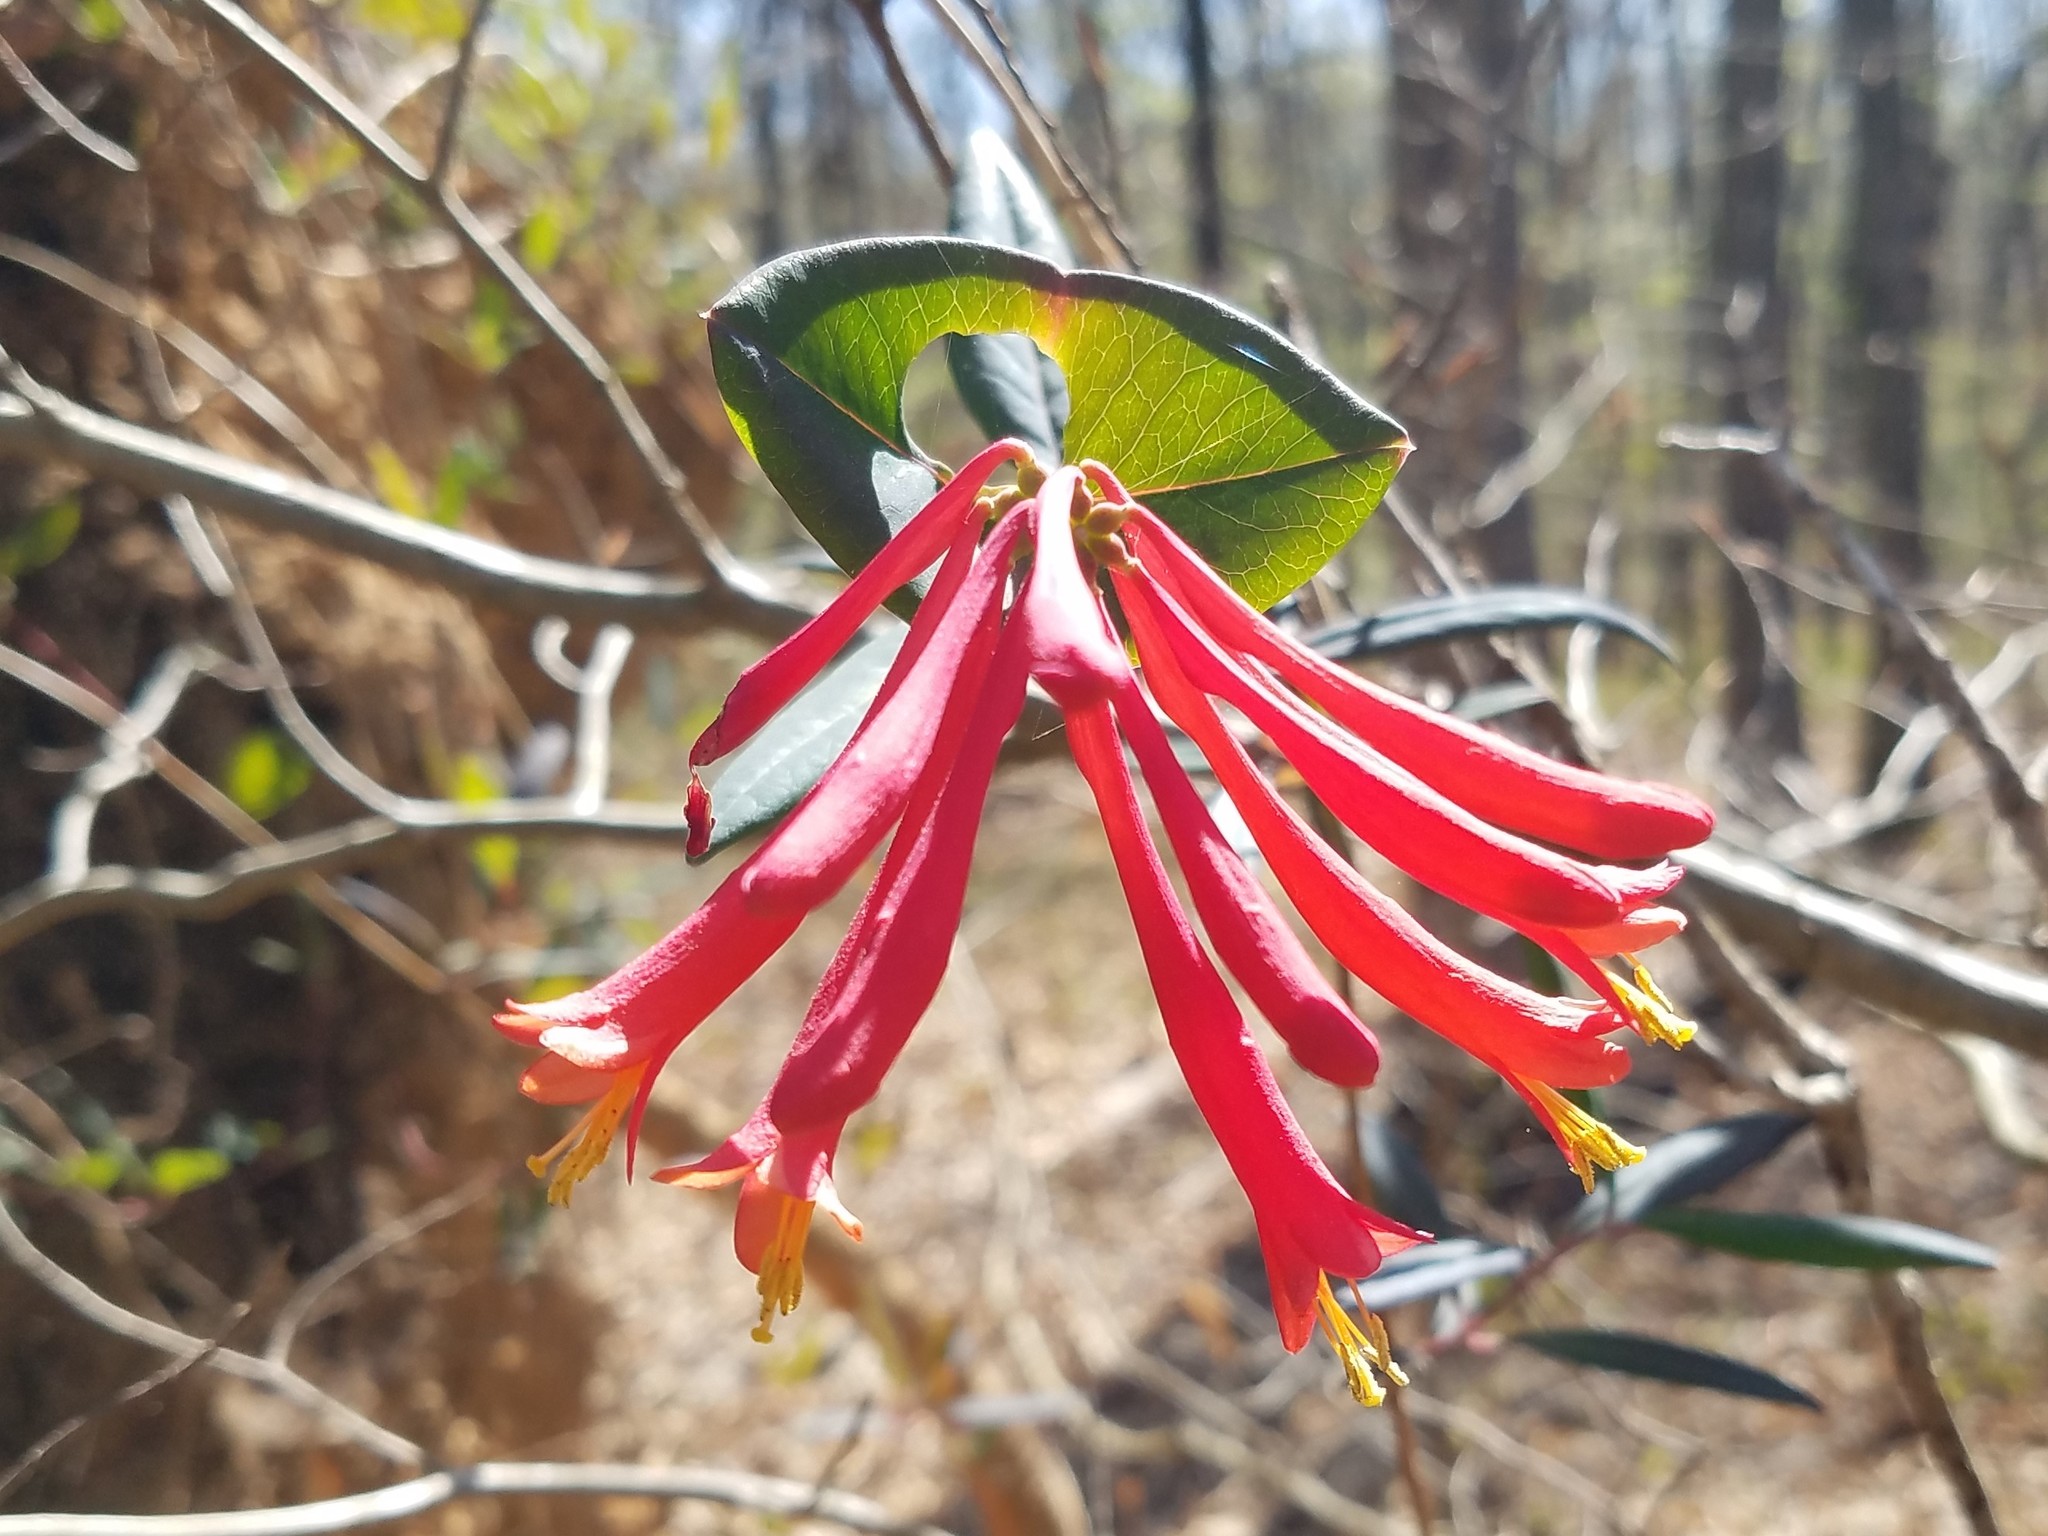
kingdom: Plantae
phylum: Tracheophyta
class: Magnoliopsida
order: Dipsacales
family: Caprifoliaceae
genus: Lonicera
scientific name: Lonicera sempervirens
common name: Coral honeysuckle
